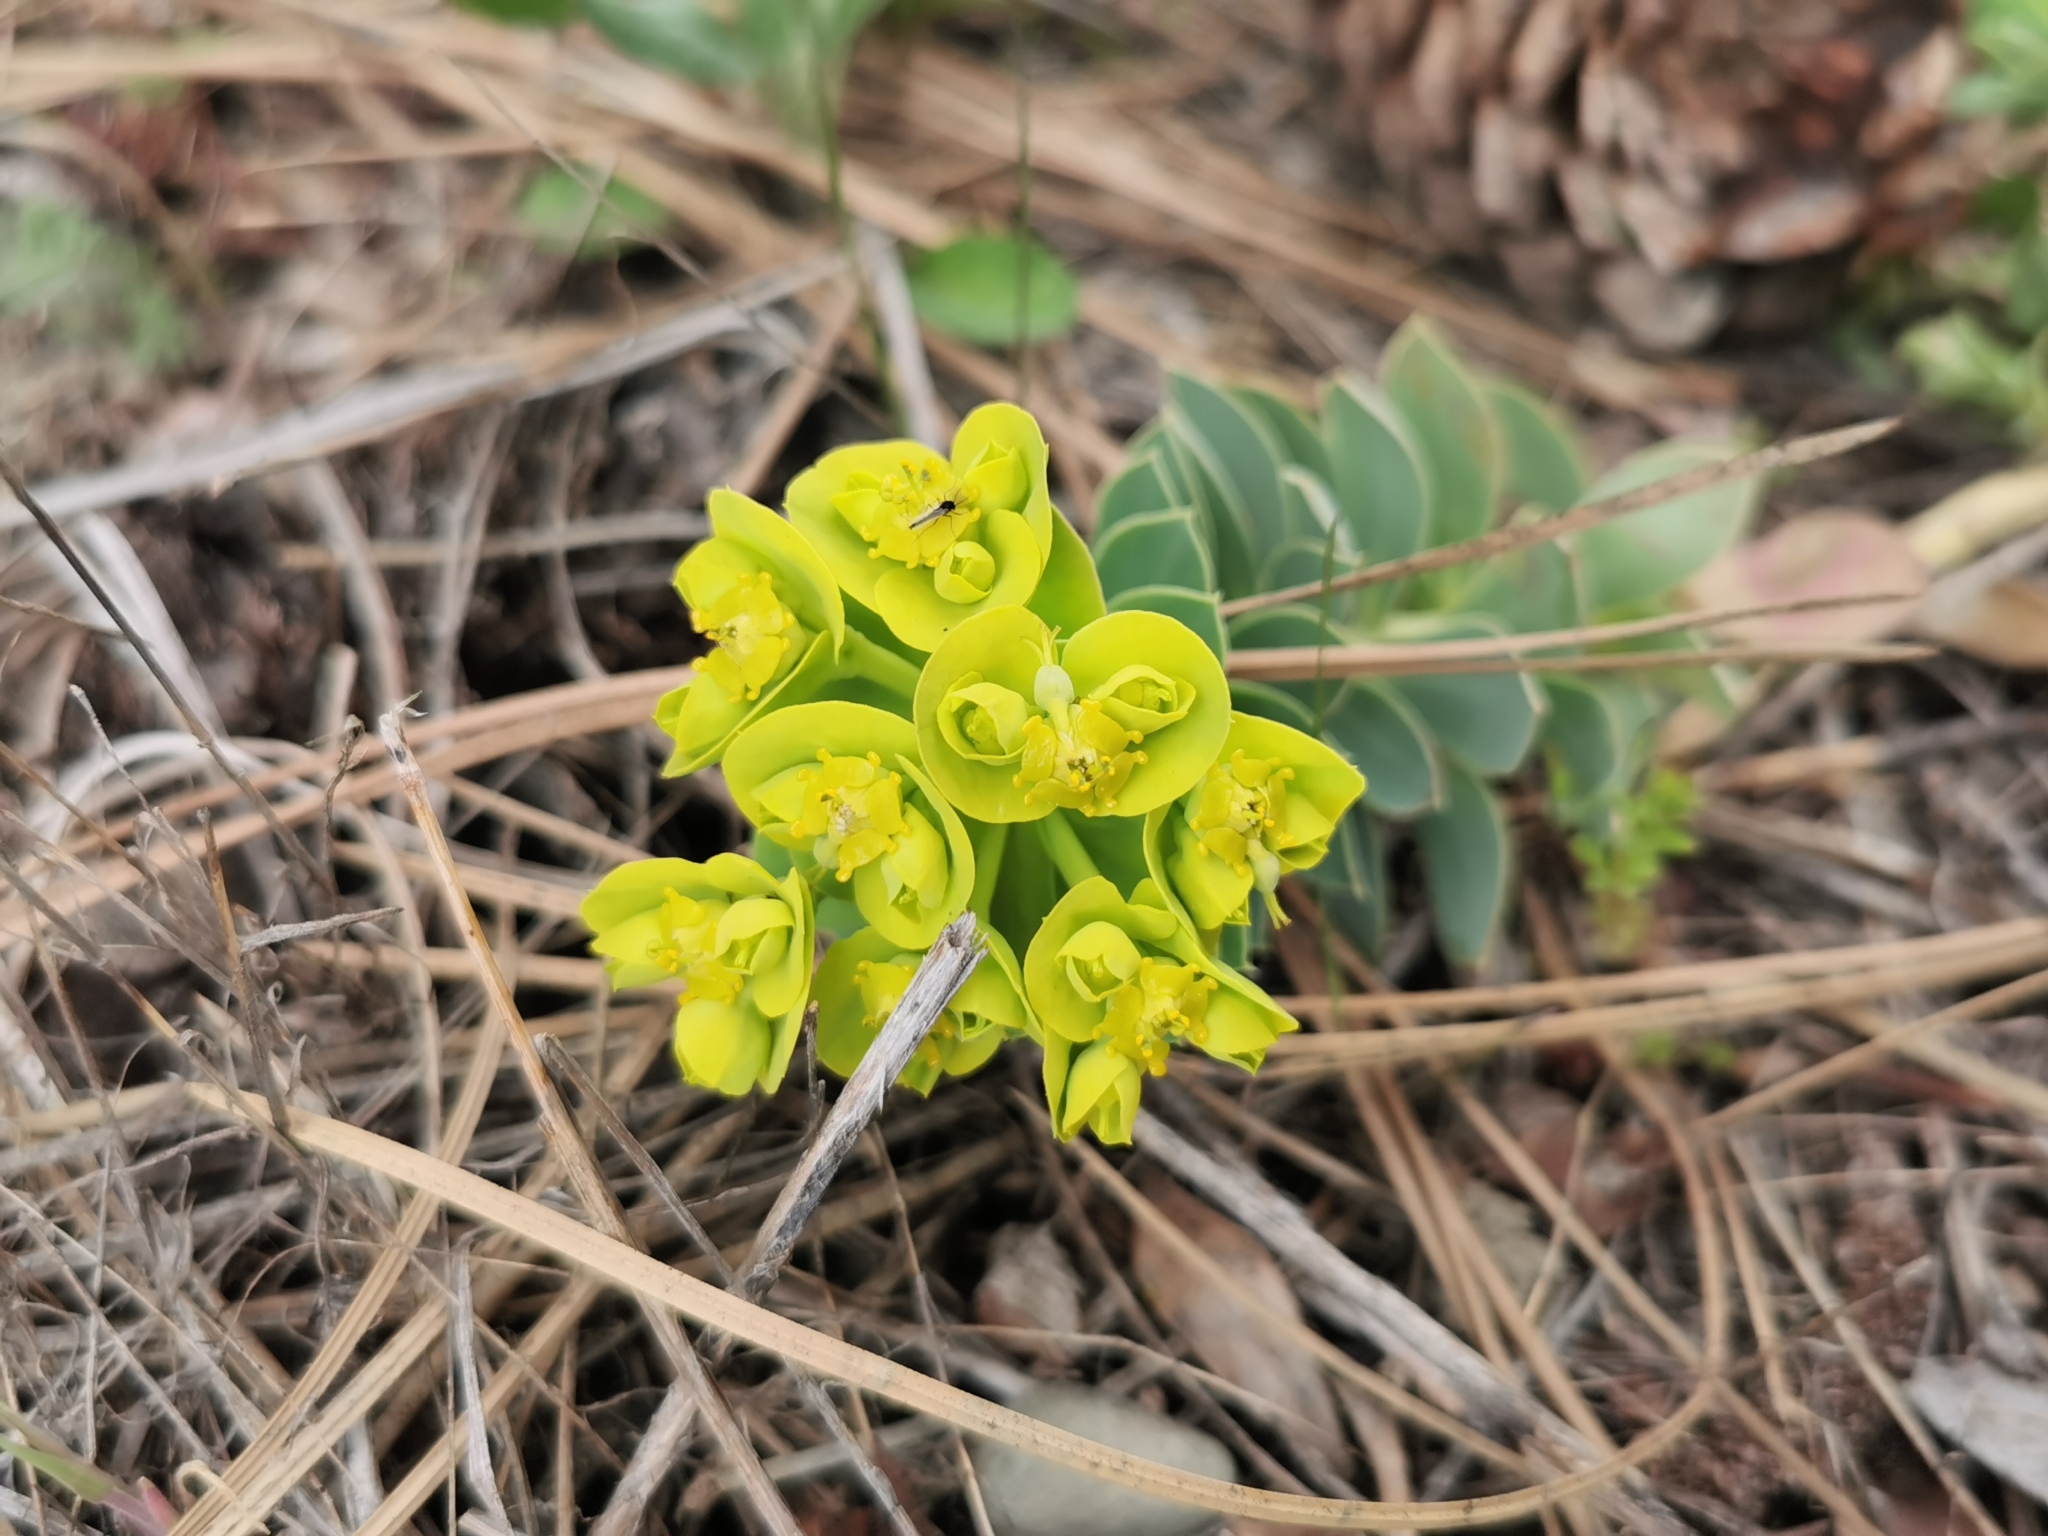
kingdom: Plantae
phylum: Tracheophyta
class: Magnoliopsida
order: Malpighiales
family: Euphorbiaceae
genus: Euphorbia
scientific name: Euphorbia myrsinites
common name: Myrtle spurge
